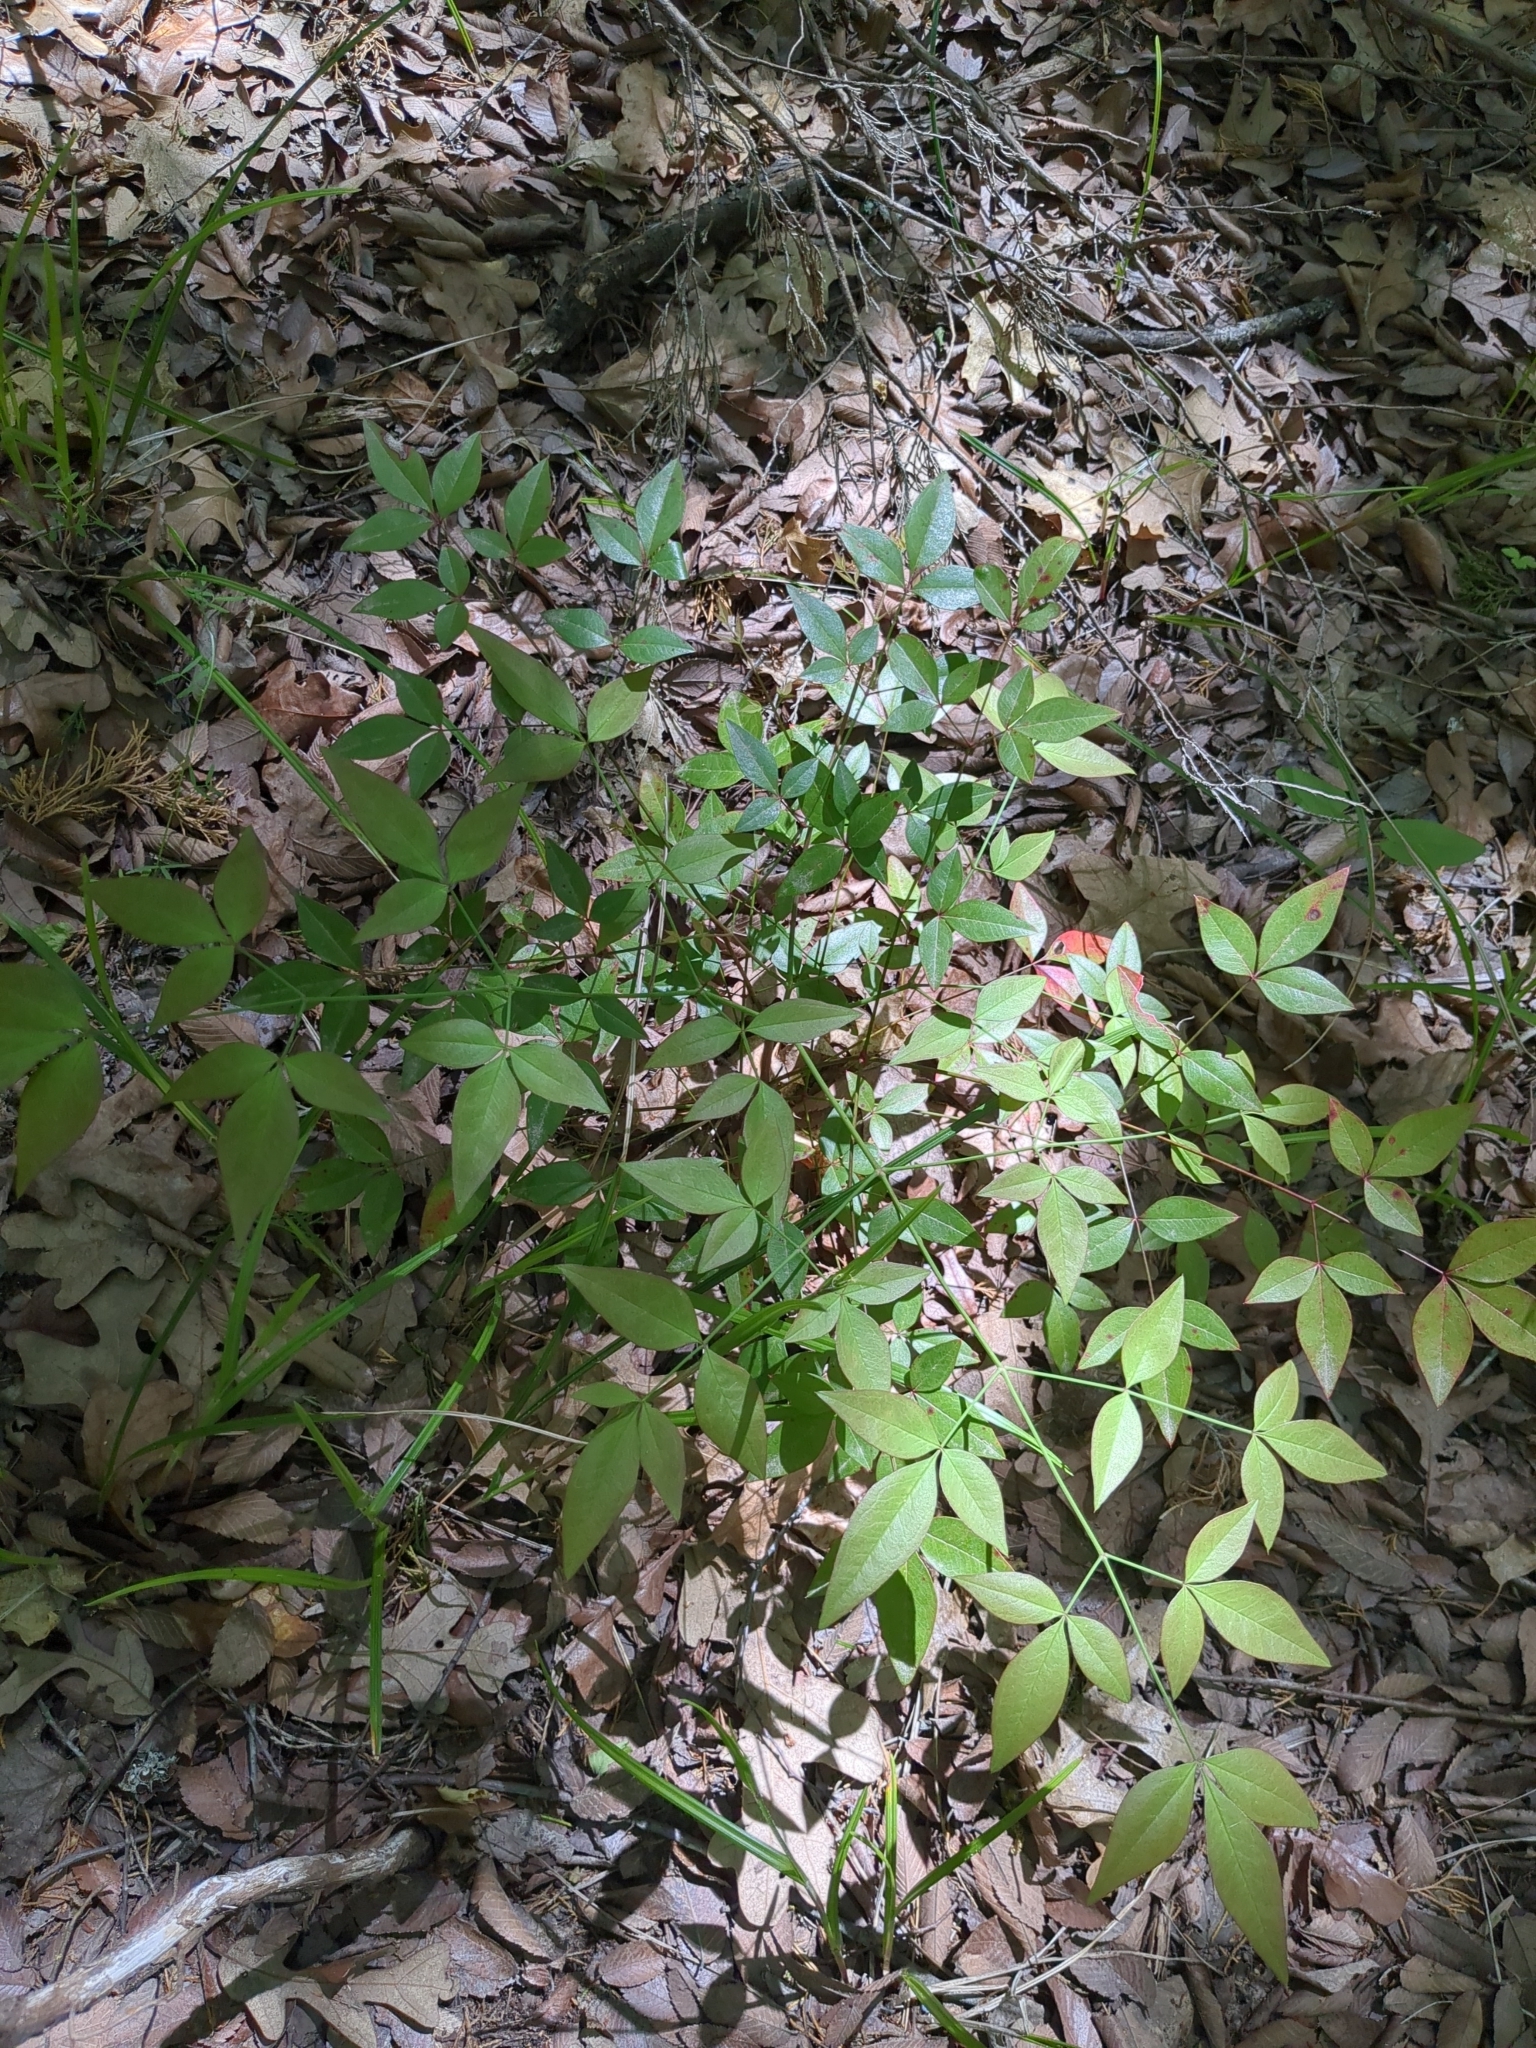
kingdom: Plantae
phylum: Tracheophyta
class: Magnoliopsida
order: Ranunculales
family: Berberidaceae
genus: Nandina
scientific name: Nandina domestica
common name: Sacred bamboo
